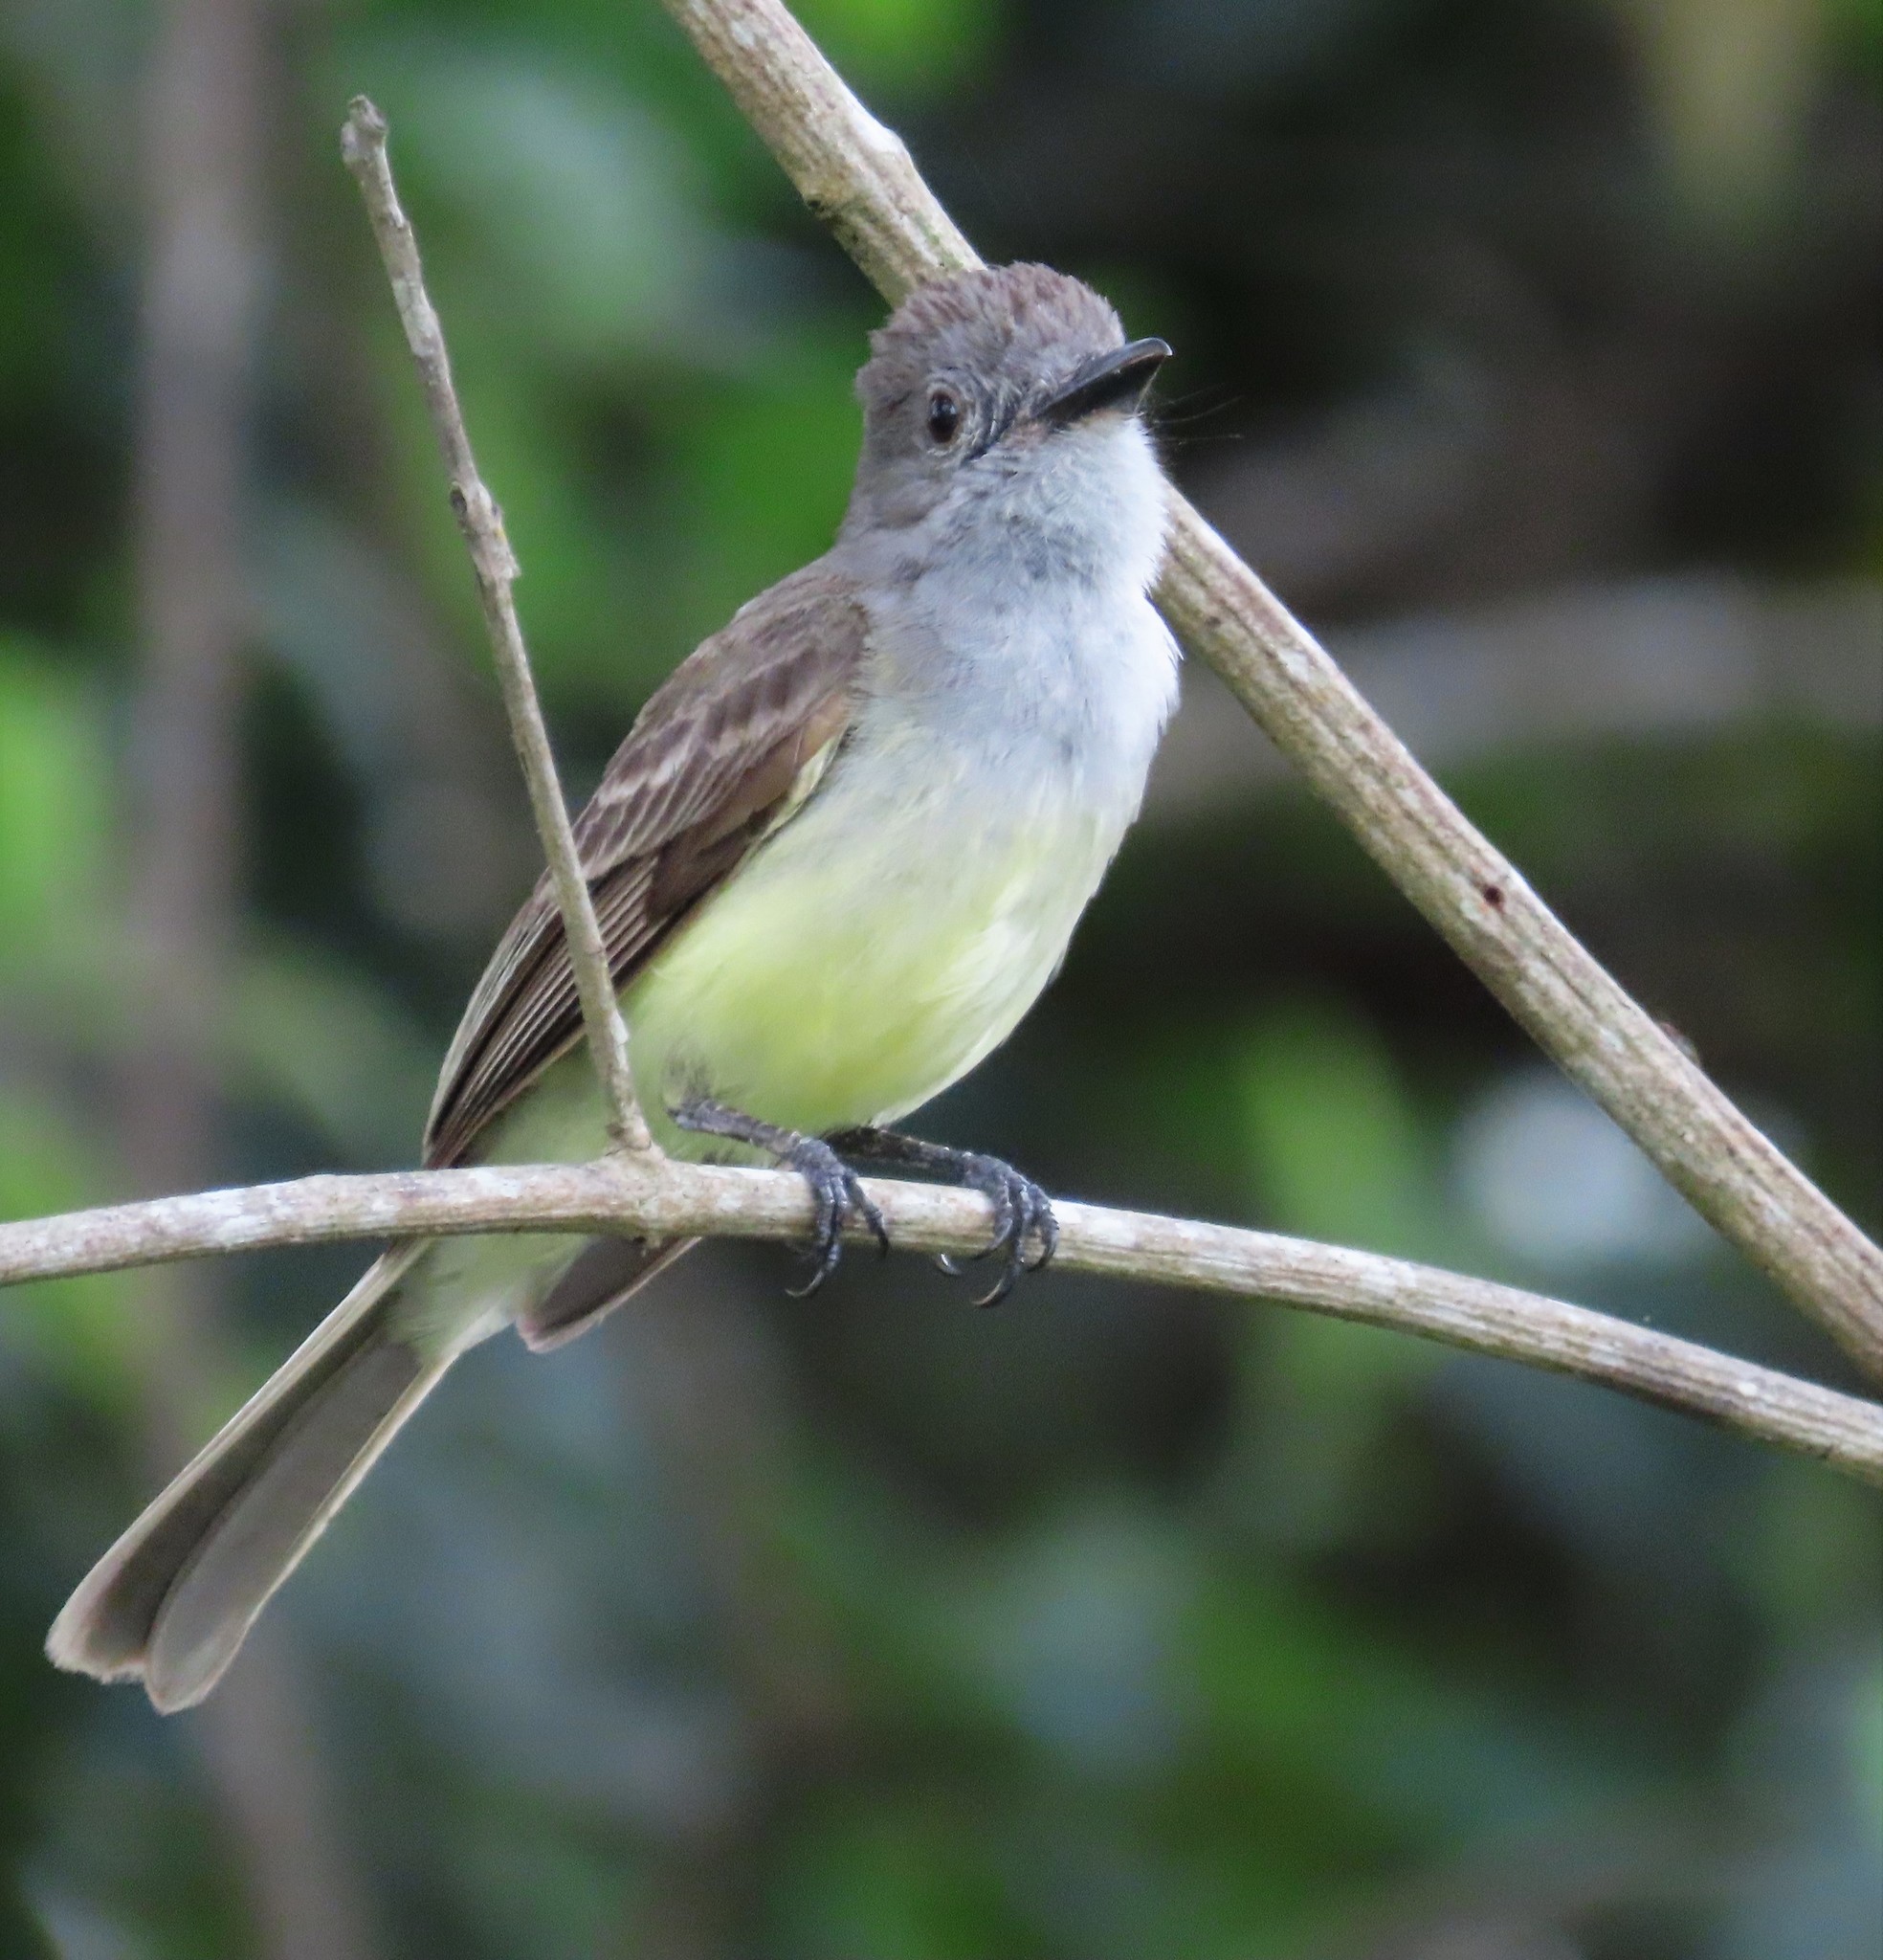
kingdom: Animalia
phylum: Chordata
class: Aves
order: Passeriformes
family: Tyrannidae
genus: Myiarchus
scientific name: Myiarchus panamensis
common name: Panama flycatcher
